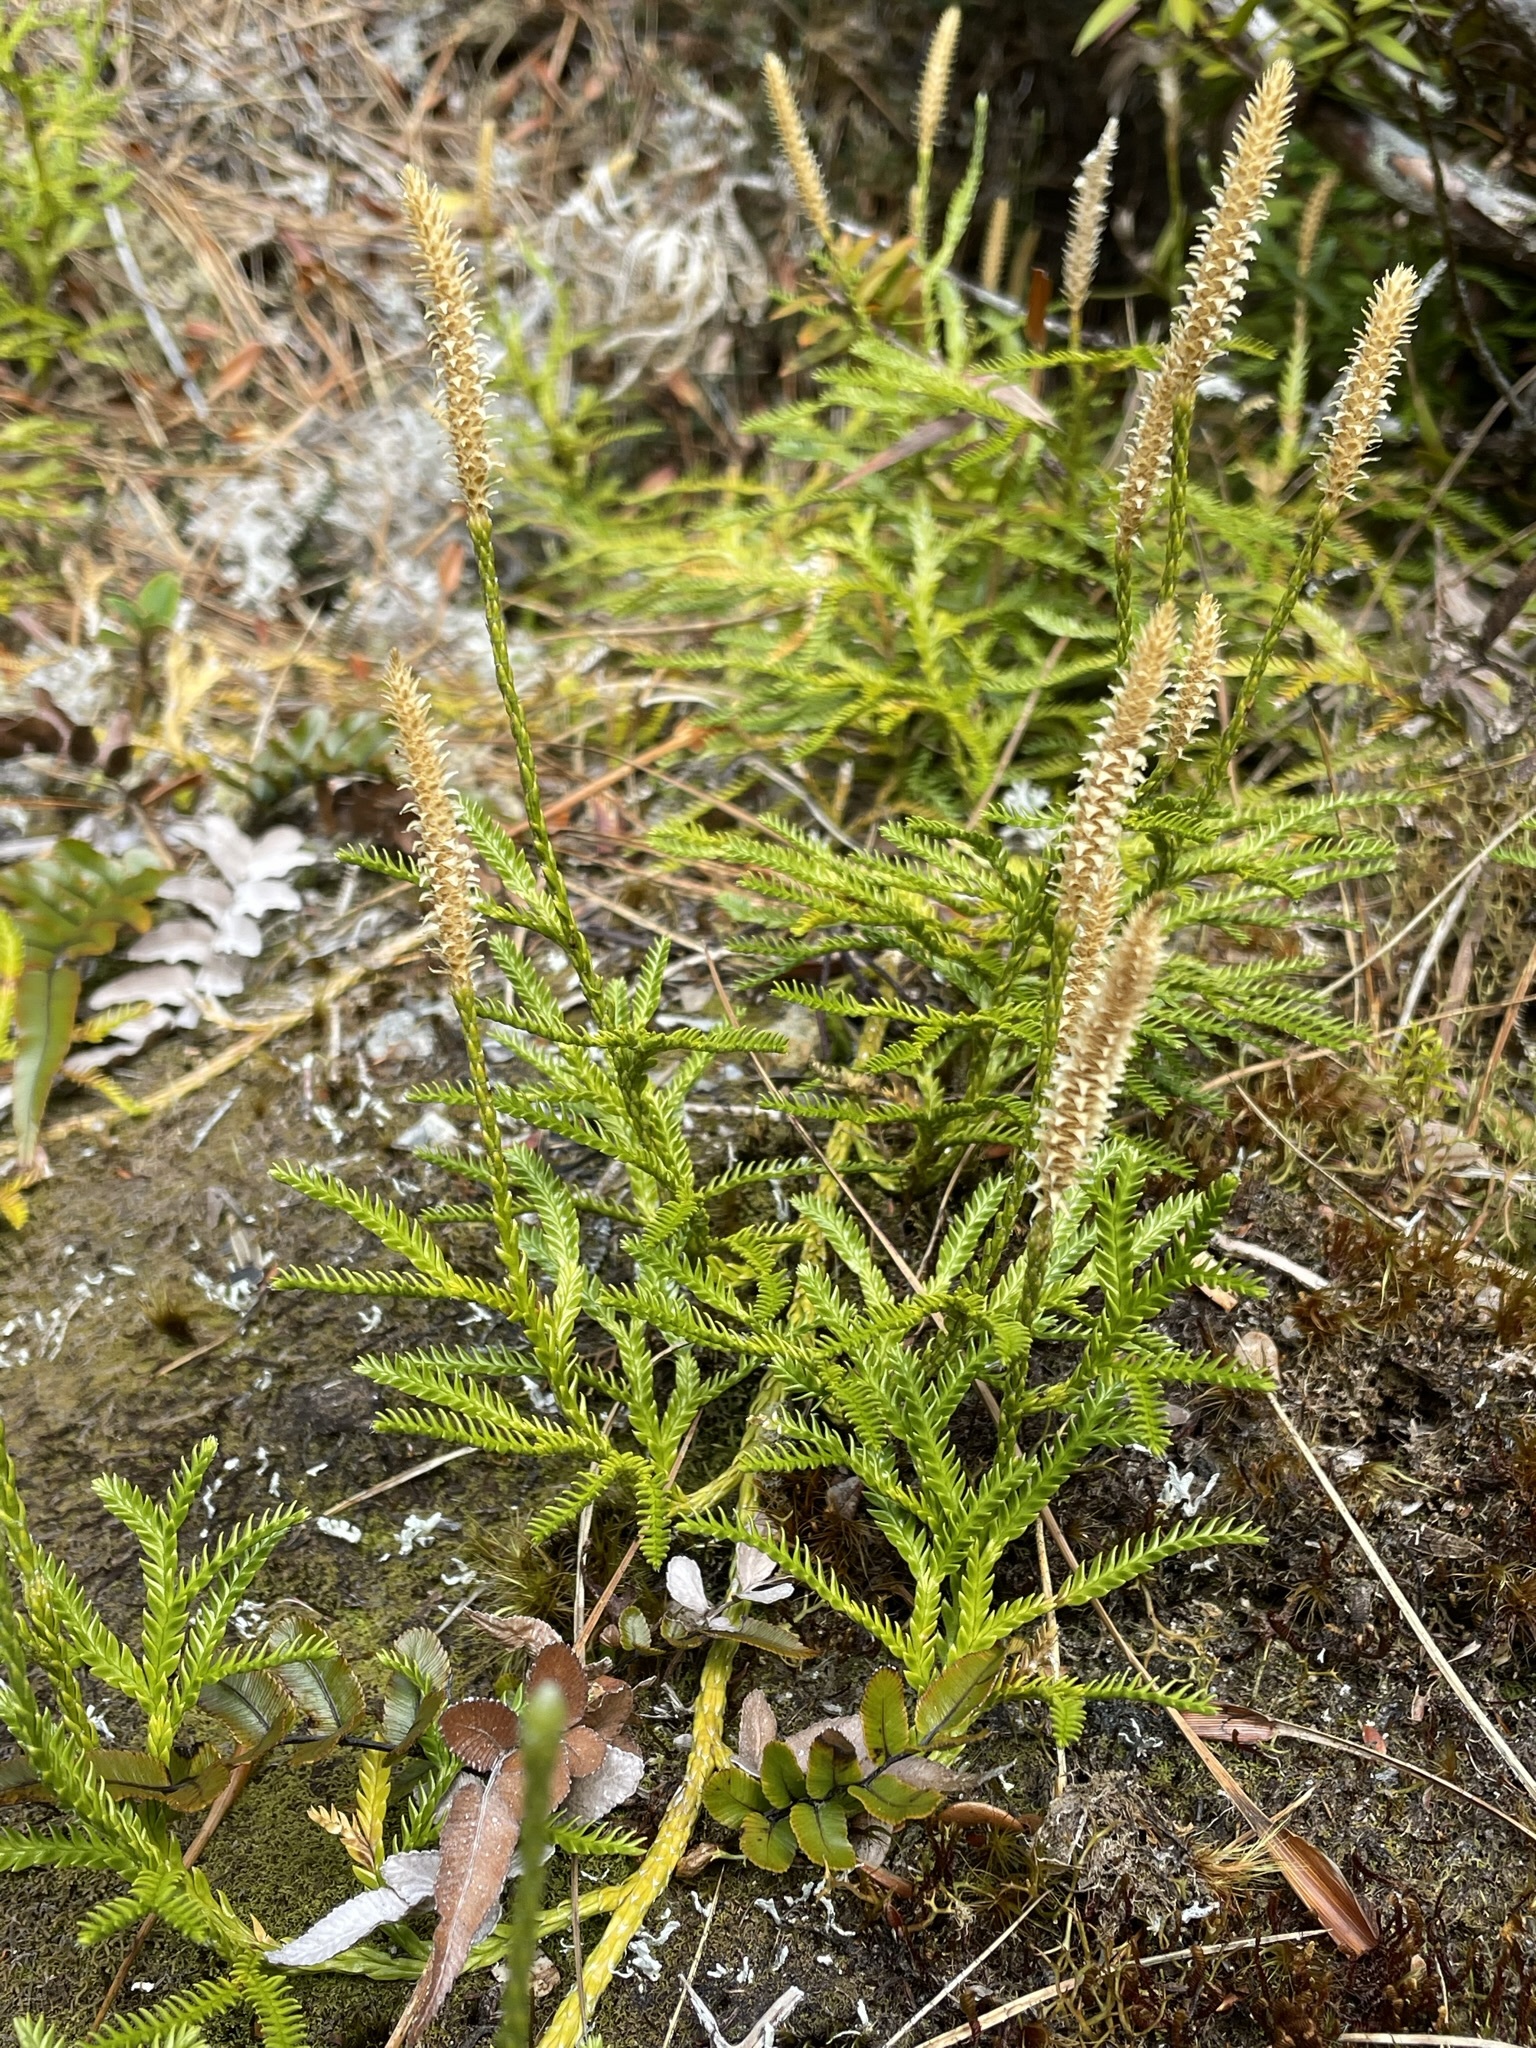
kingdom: Plantae
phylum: Tracheophyta
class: Lycopodiopsida
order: Lycopodiales
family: Lycopodiaceae
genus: Diphasium
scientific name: Diphasium scariosum
